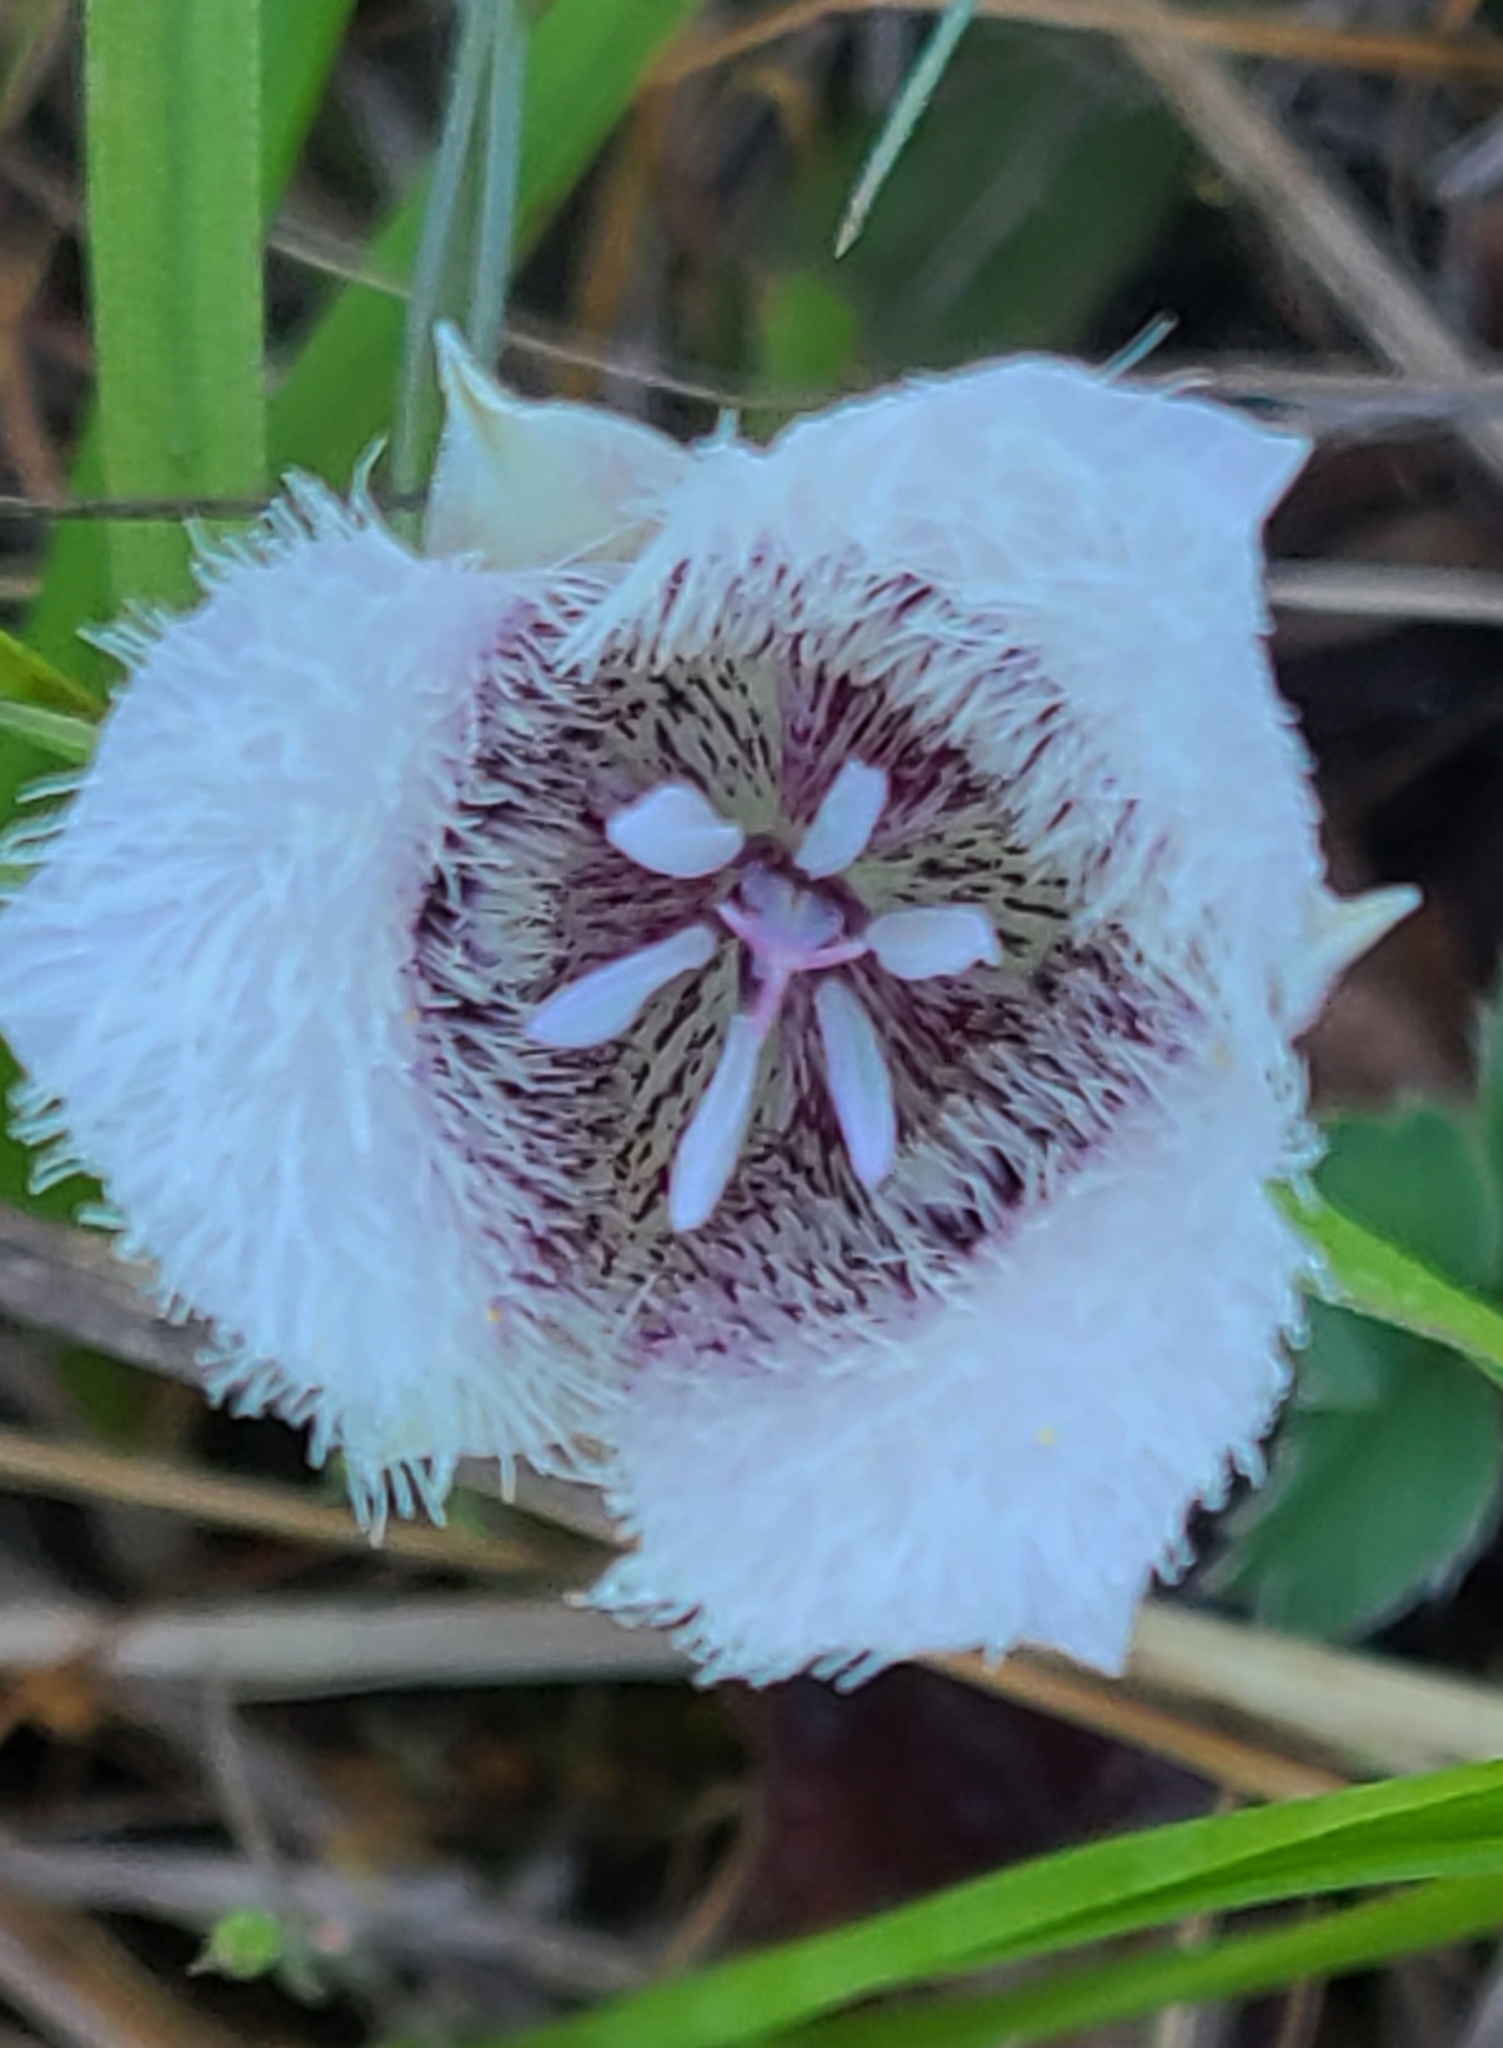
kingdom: Plantae
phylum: Tracheophyta
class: Liliopsida
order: Liliales
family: Liliaceae
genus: Calochortus
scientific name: Calochortus tolmiei
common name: Pussy-ears
